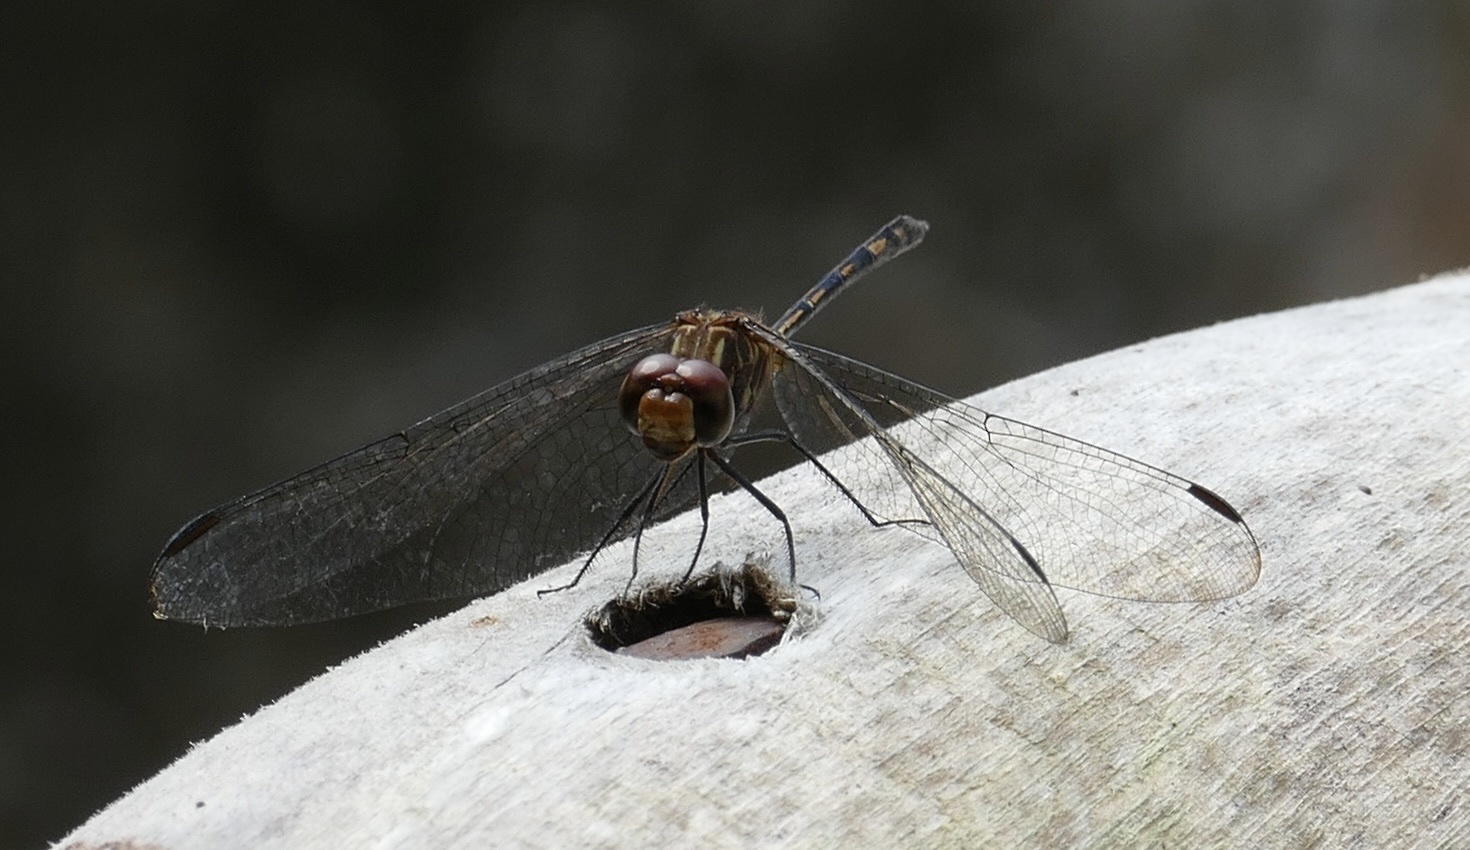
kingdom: Animalia
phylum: Arthropoda
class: Insecta
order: Odonata
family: Libellulidae
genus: Dythemis
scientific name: Dythemis sterilis
